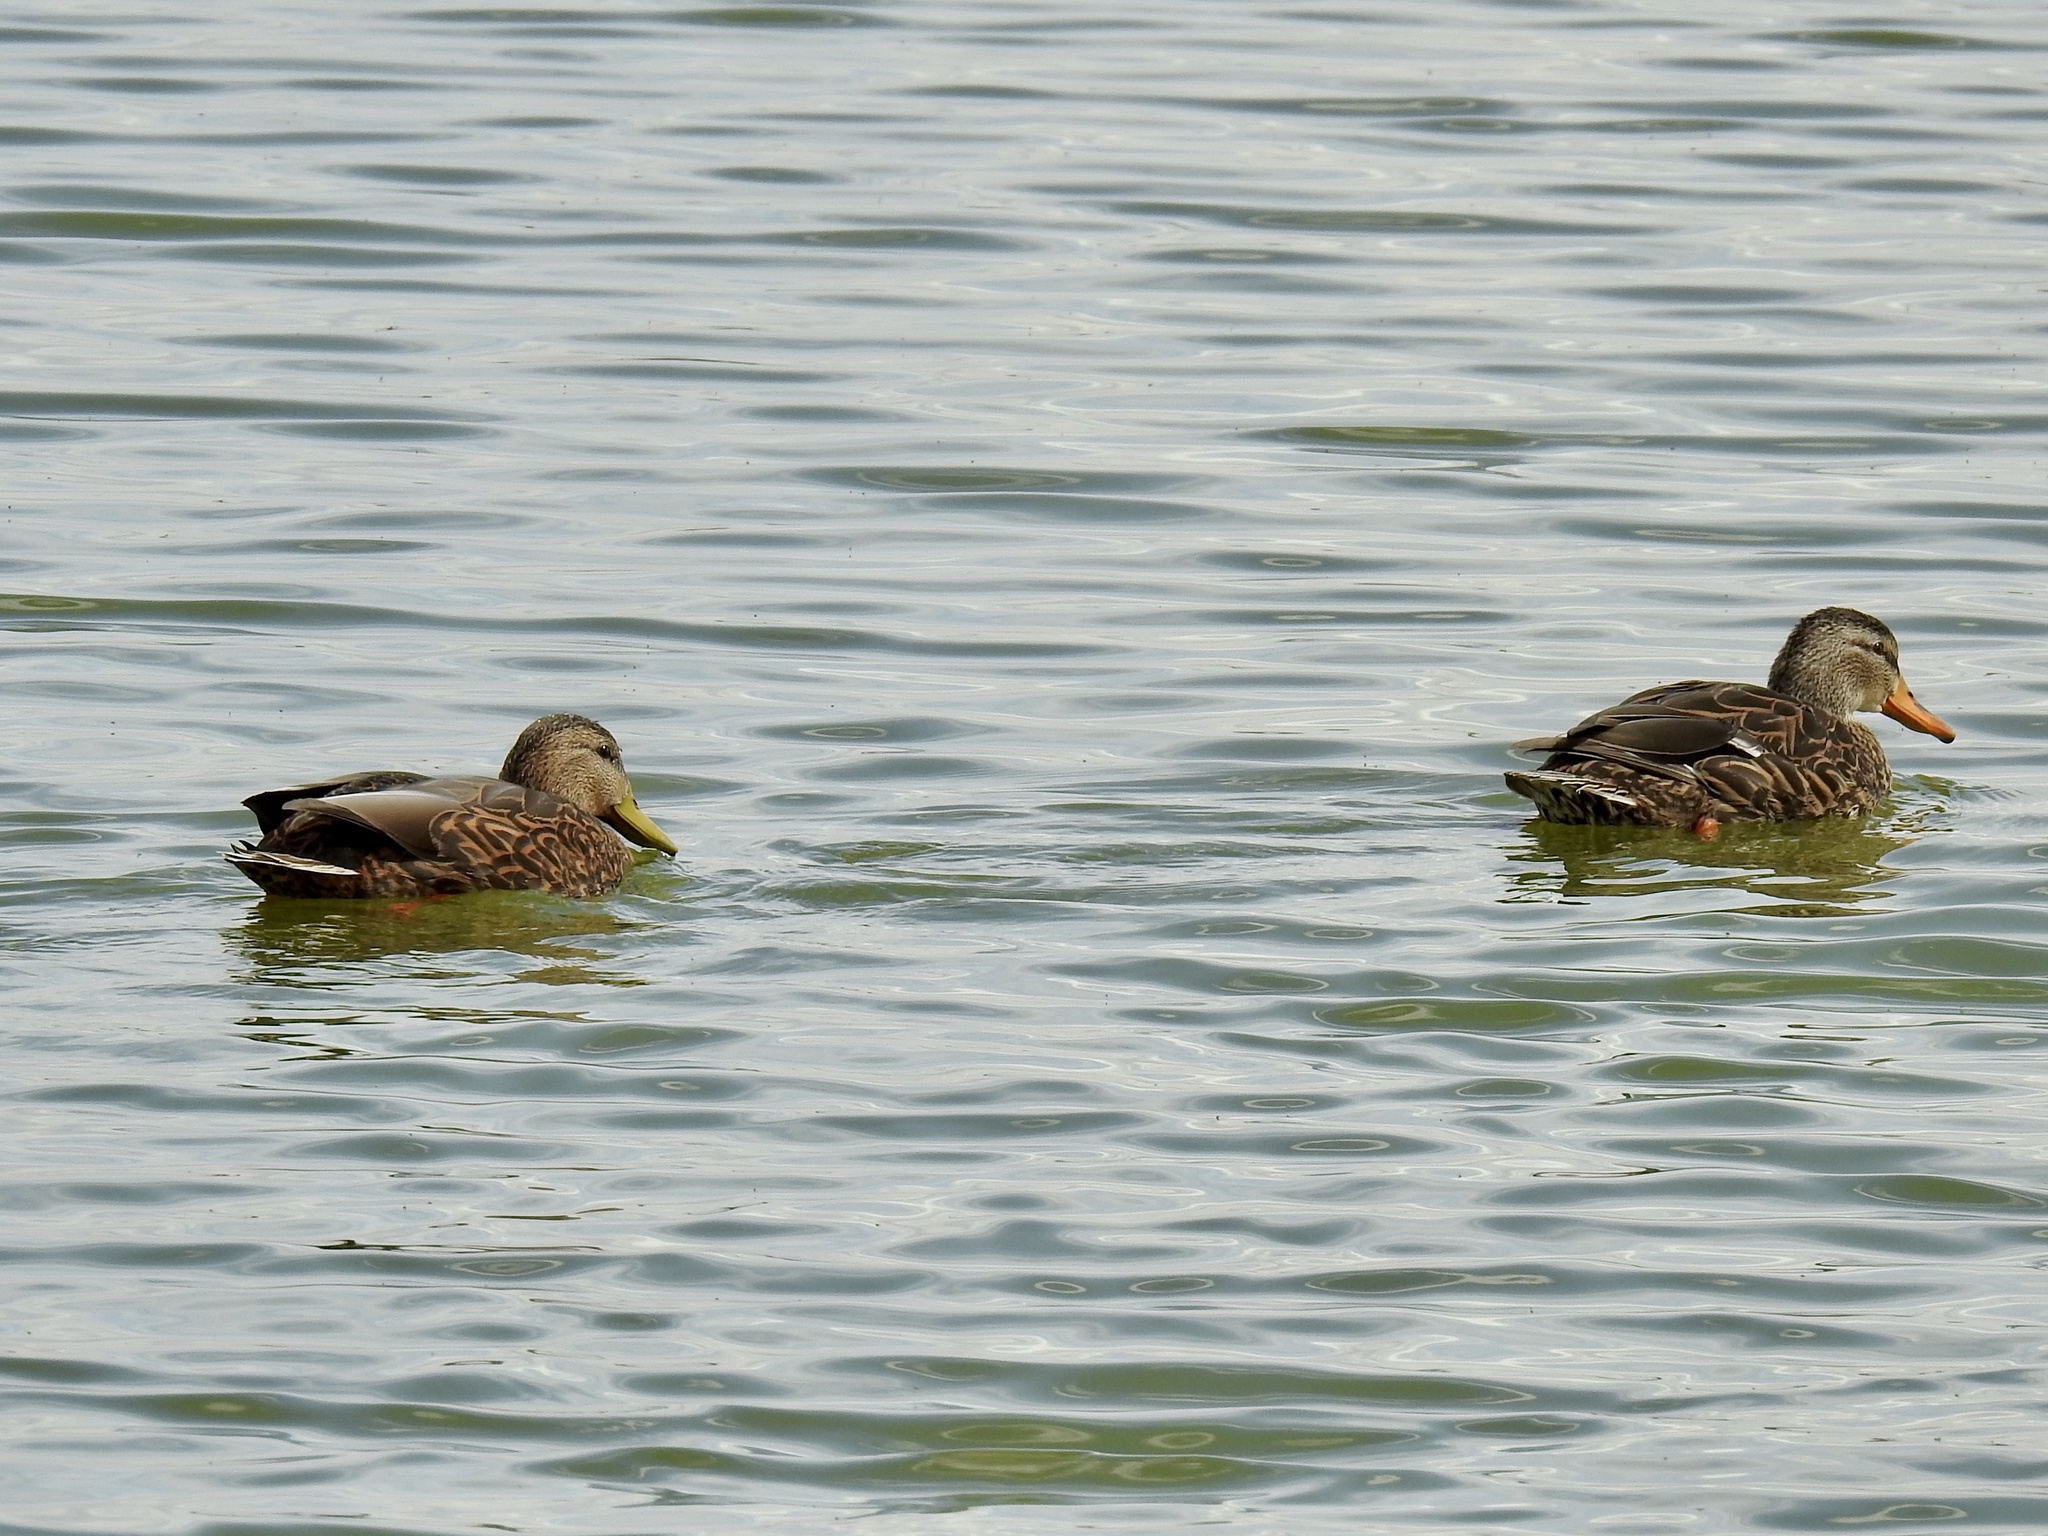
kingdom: Animalia
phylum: Chordata
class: Aves
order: Anseriformes
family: Anatidae
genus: Anas
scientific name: Anas diazi
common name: Mexican duck
